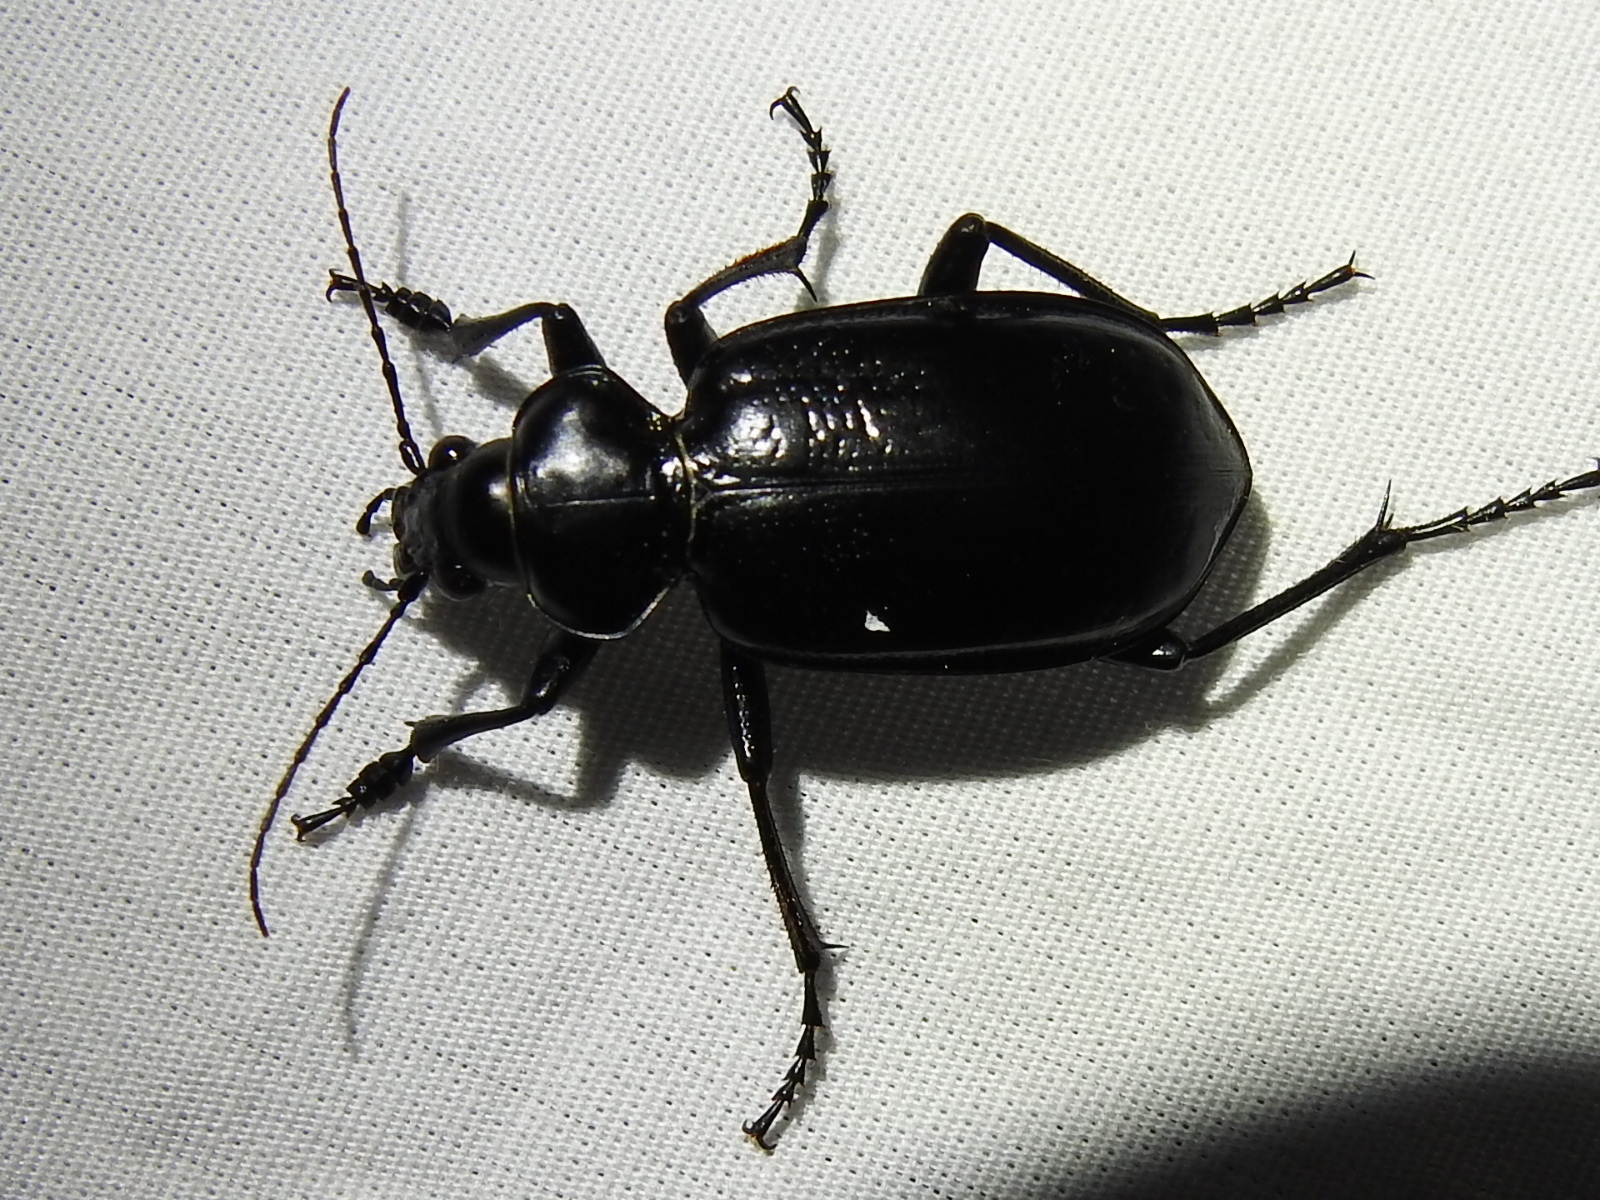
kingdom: Animalia
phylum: Arthropoda
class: Insecta
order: Coleoptera
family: Carabidae
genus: Calosoma
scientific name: Calosoma marginale
